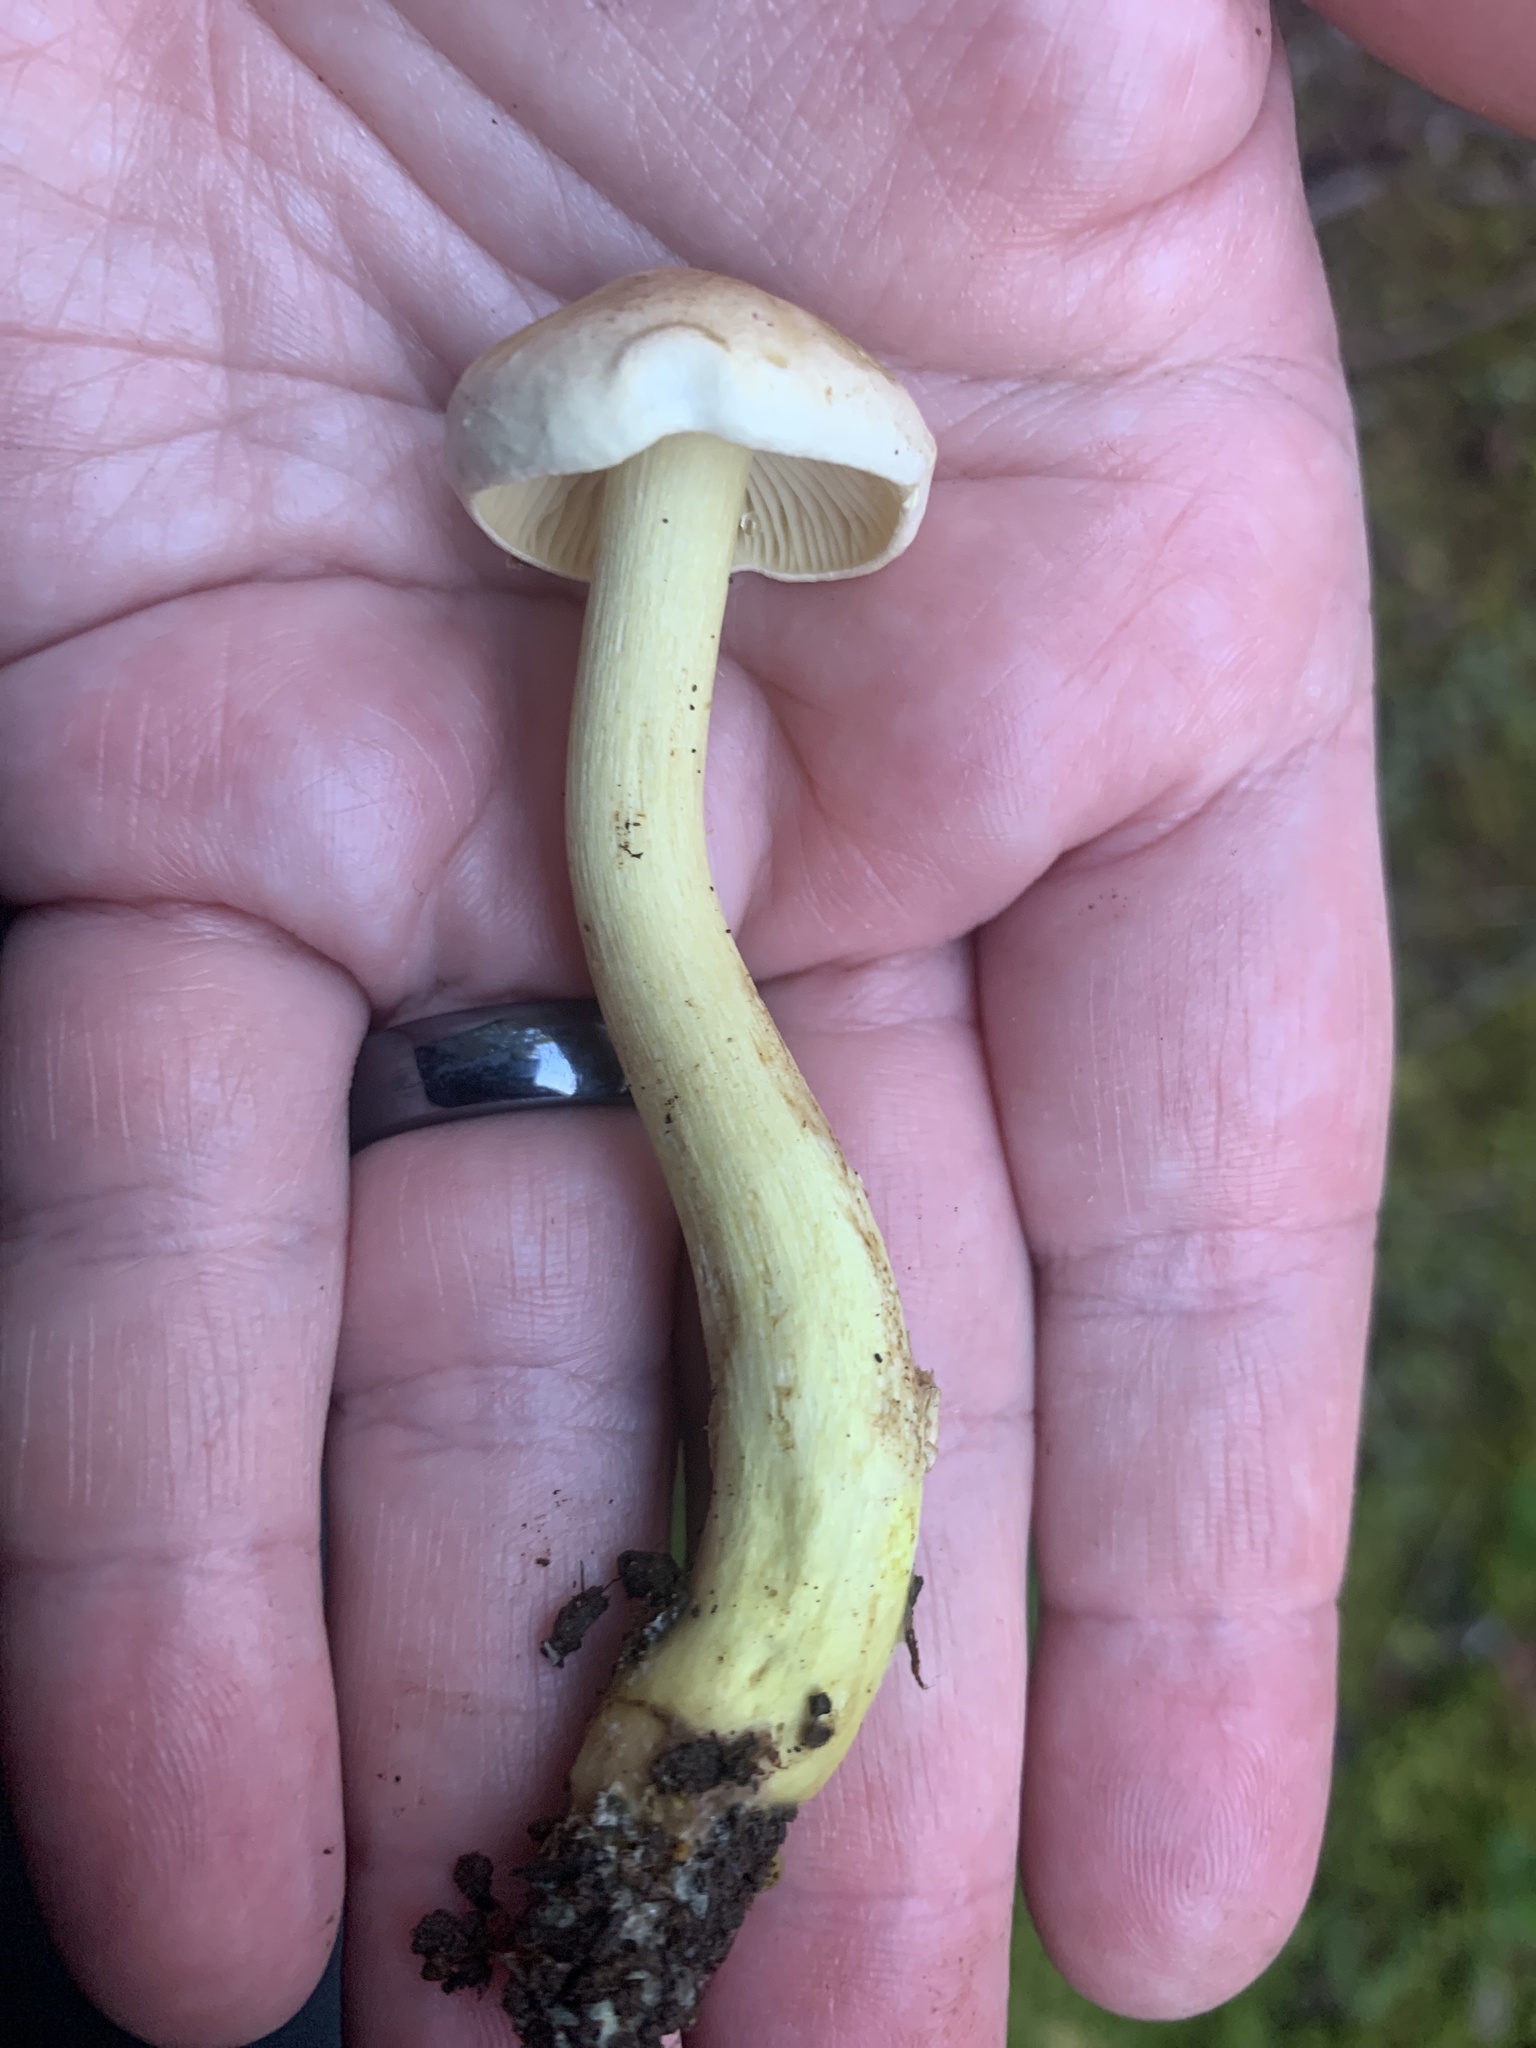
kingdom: Fungi
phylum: Basidiomycota
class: Agaricomycetes
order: Agaricales
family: Tricholomataceae
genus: Tricholoma
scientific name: Tricholoma sulphureum
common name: Stinky knight
